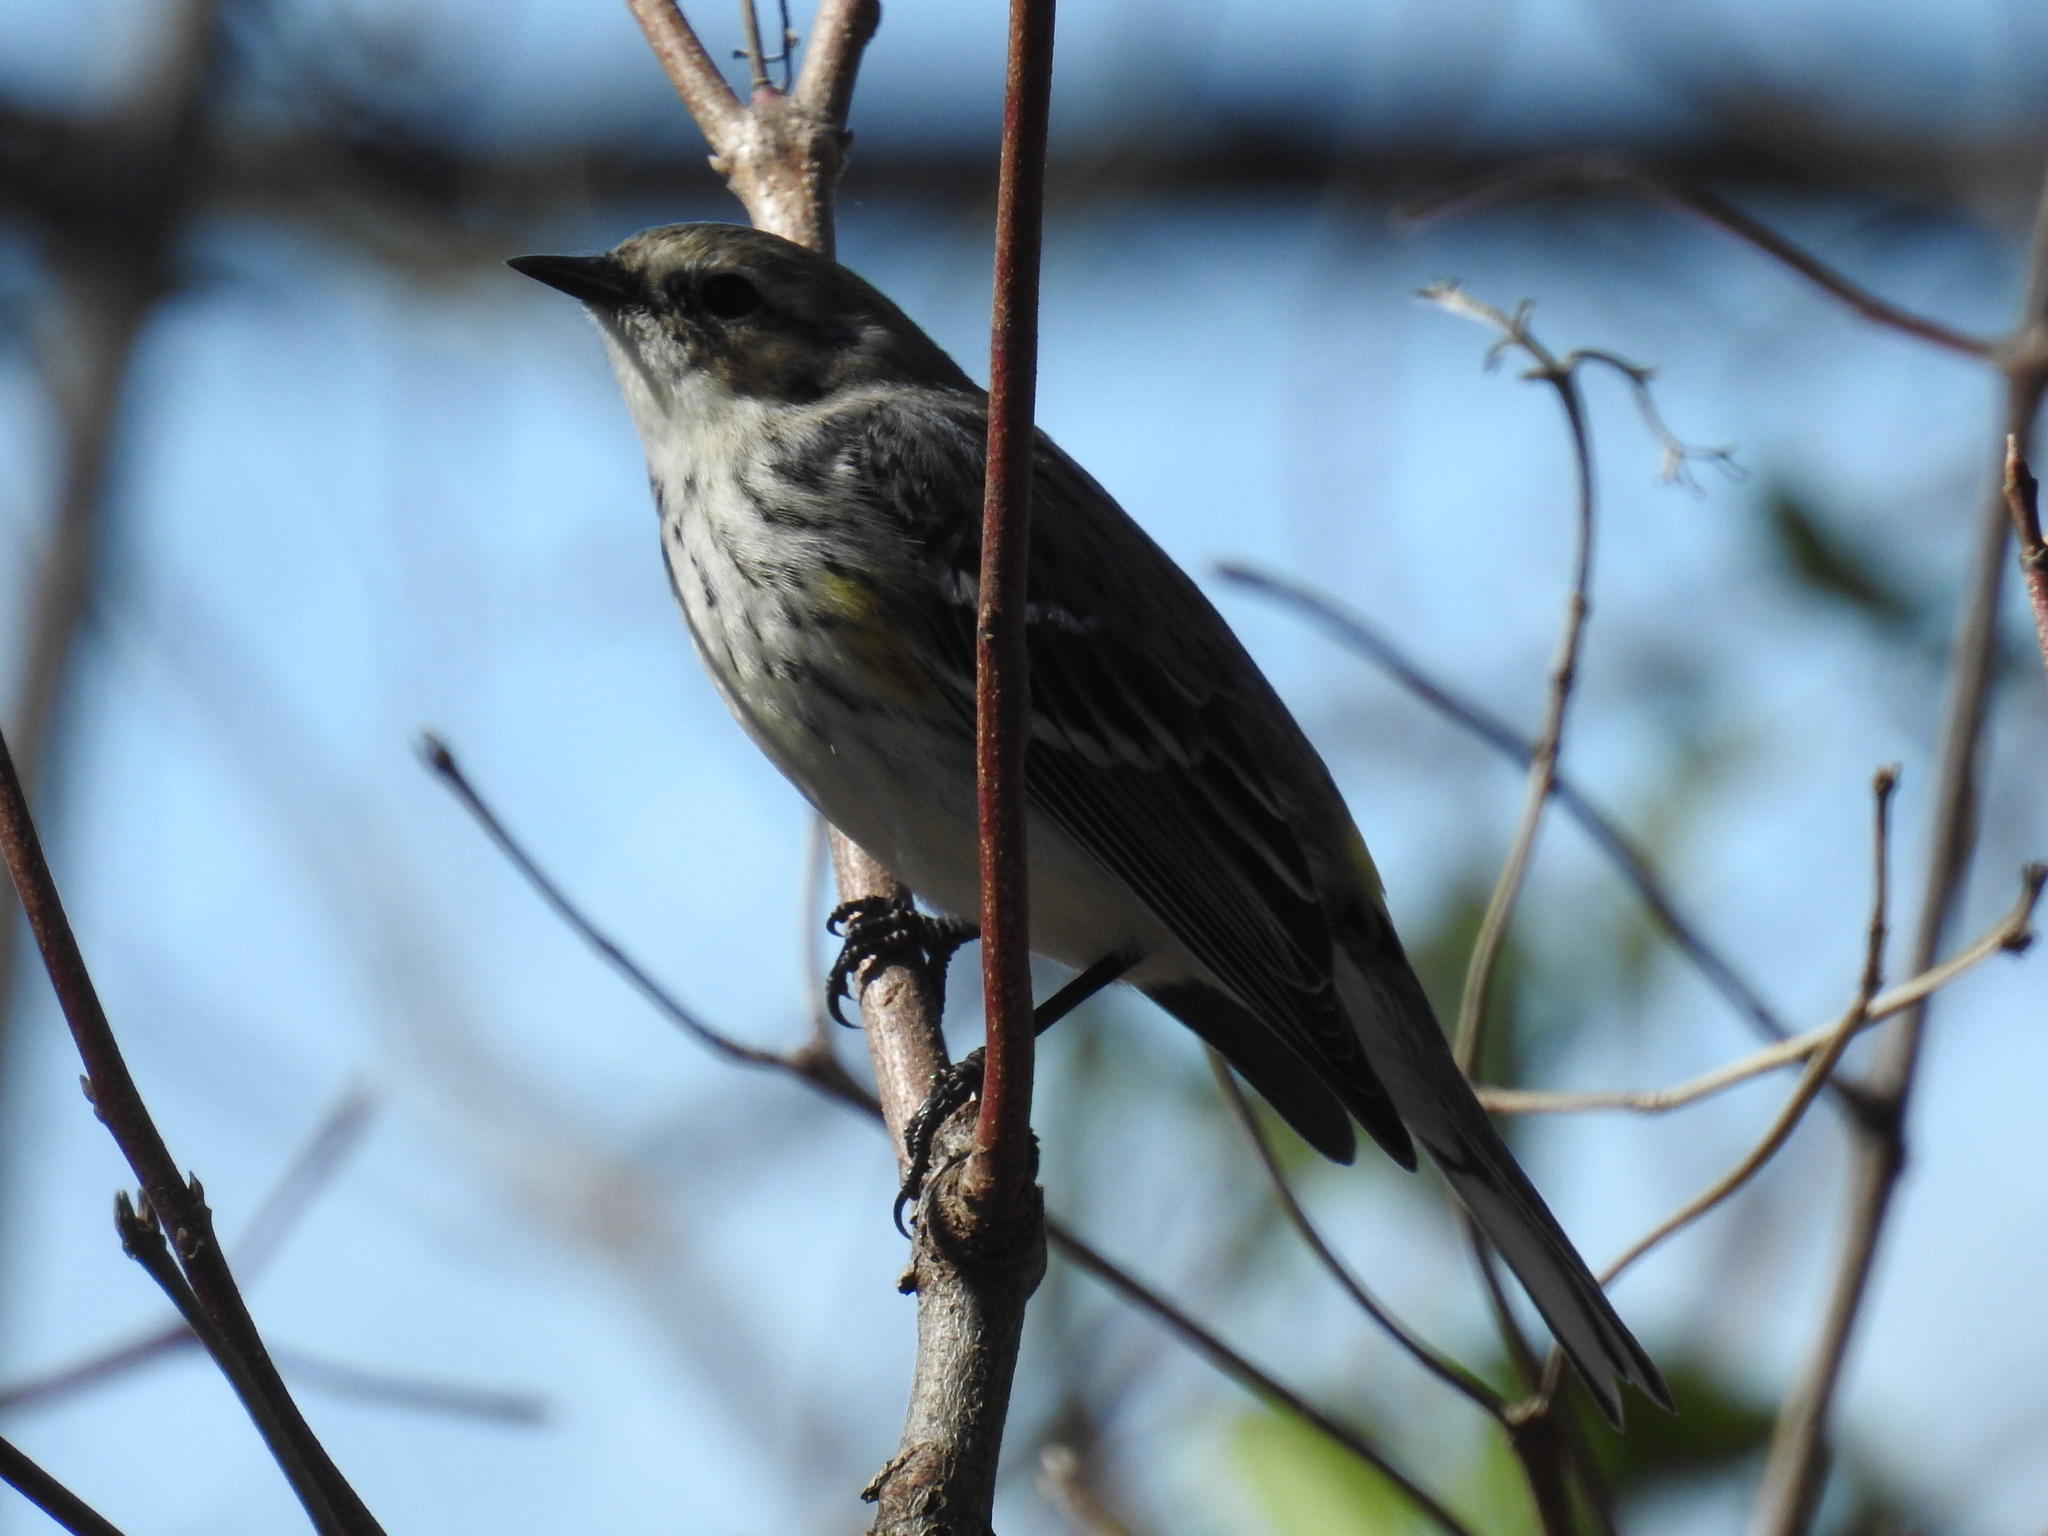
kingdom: Animalia
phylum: Chordata
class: Aves
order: Passeriformes
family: Parulidae
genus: Setophaga
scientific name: Setophaga coronata
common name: Myrtle warbler
